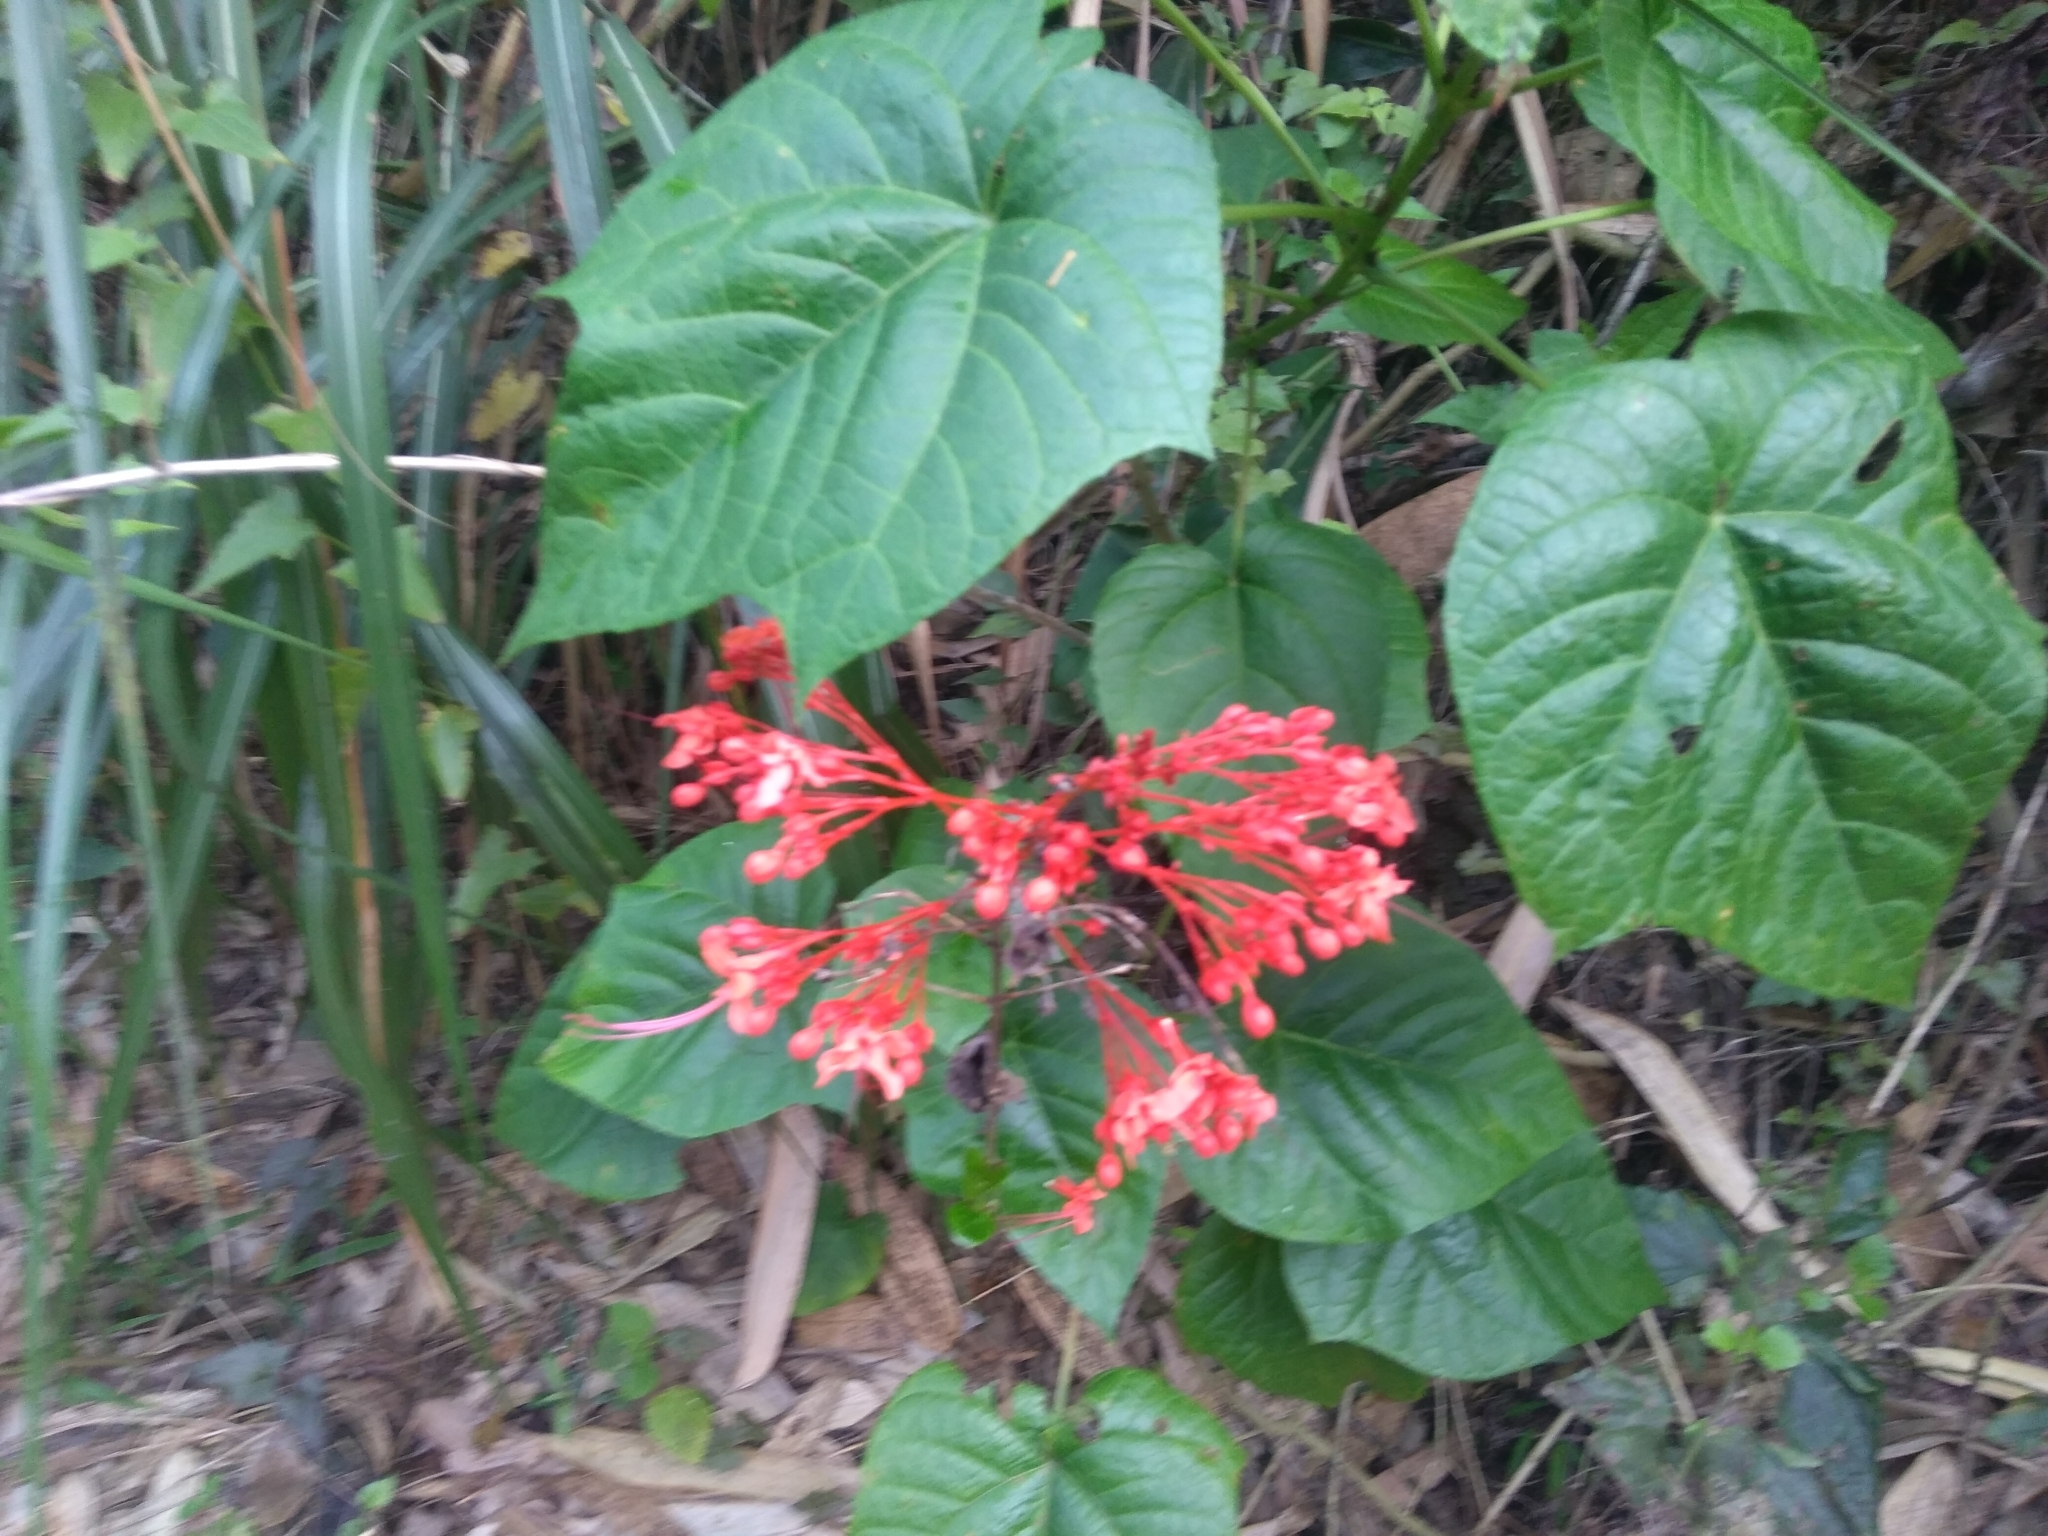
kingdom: Plantae
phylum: Tracheophyta
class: Magnoliopsida
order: Lamiales
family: Lamiaceae
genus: Clerodendrum
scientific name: Clerodendrum japonicum
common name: Japanese glorybower
